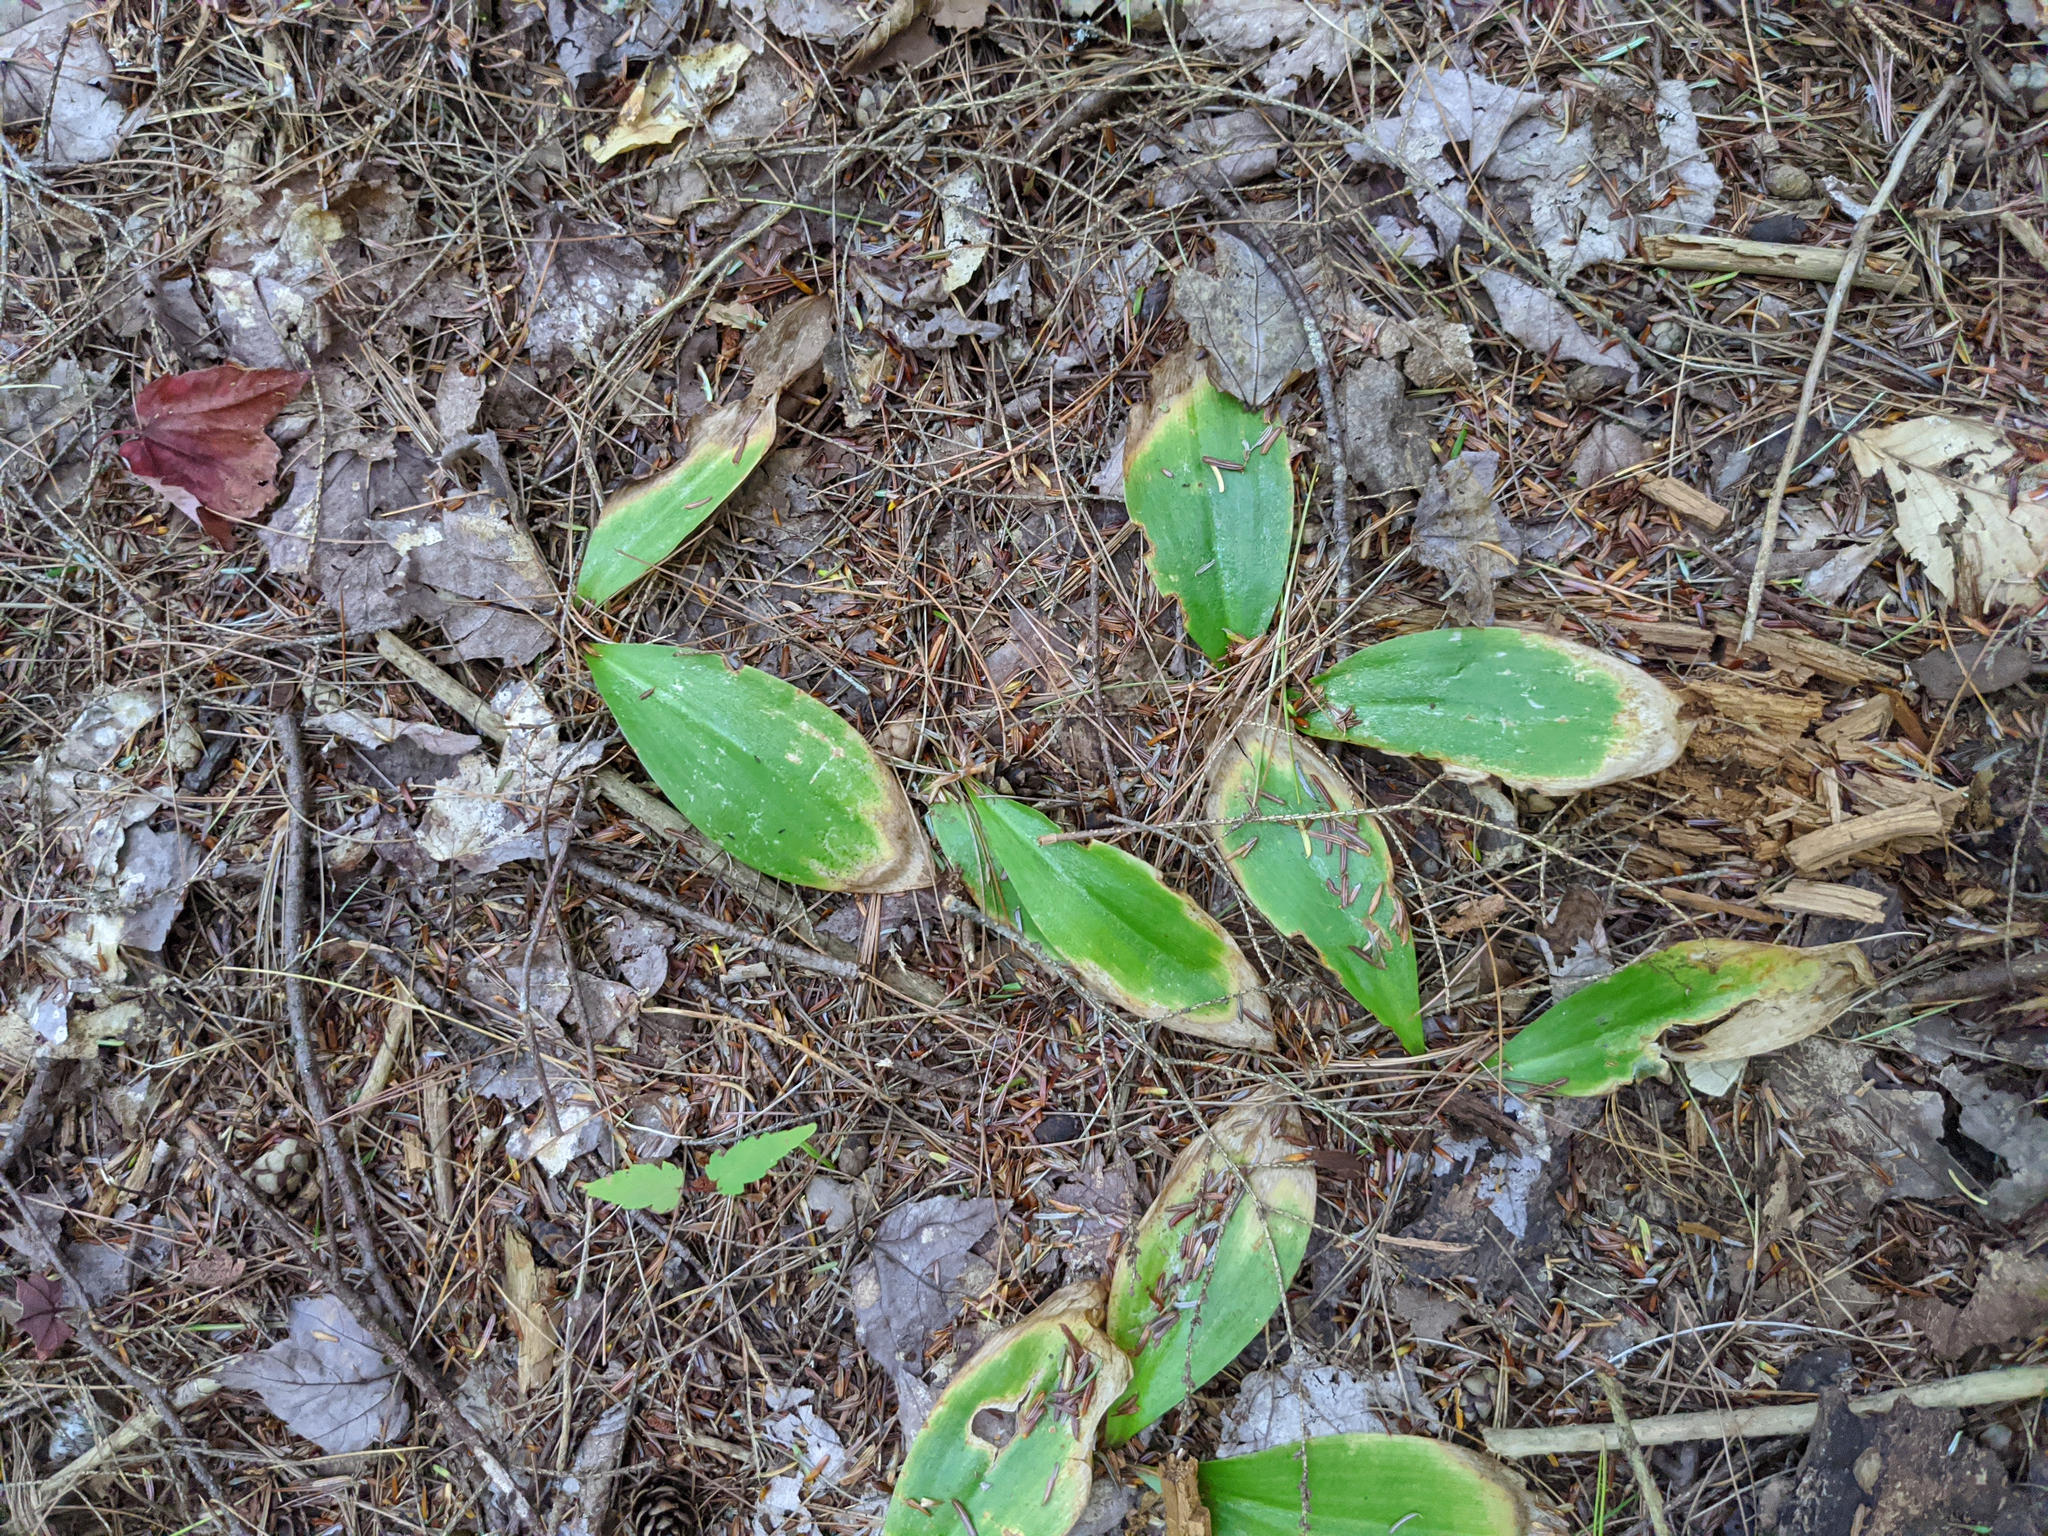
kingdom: Plantae
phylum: Tracheophyta
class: Liliopsida
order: Liliales
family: Liliaceae
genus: Clintonia
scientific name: Clintonia borealis
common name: Yellow clintonia
